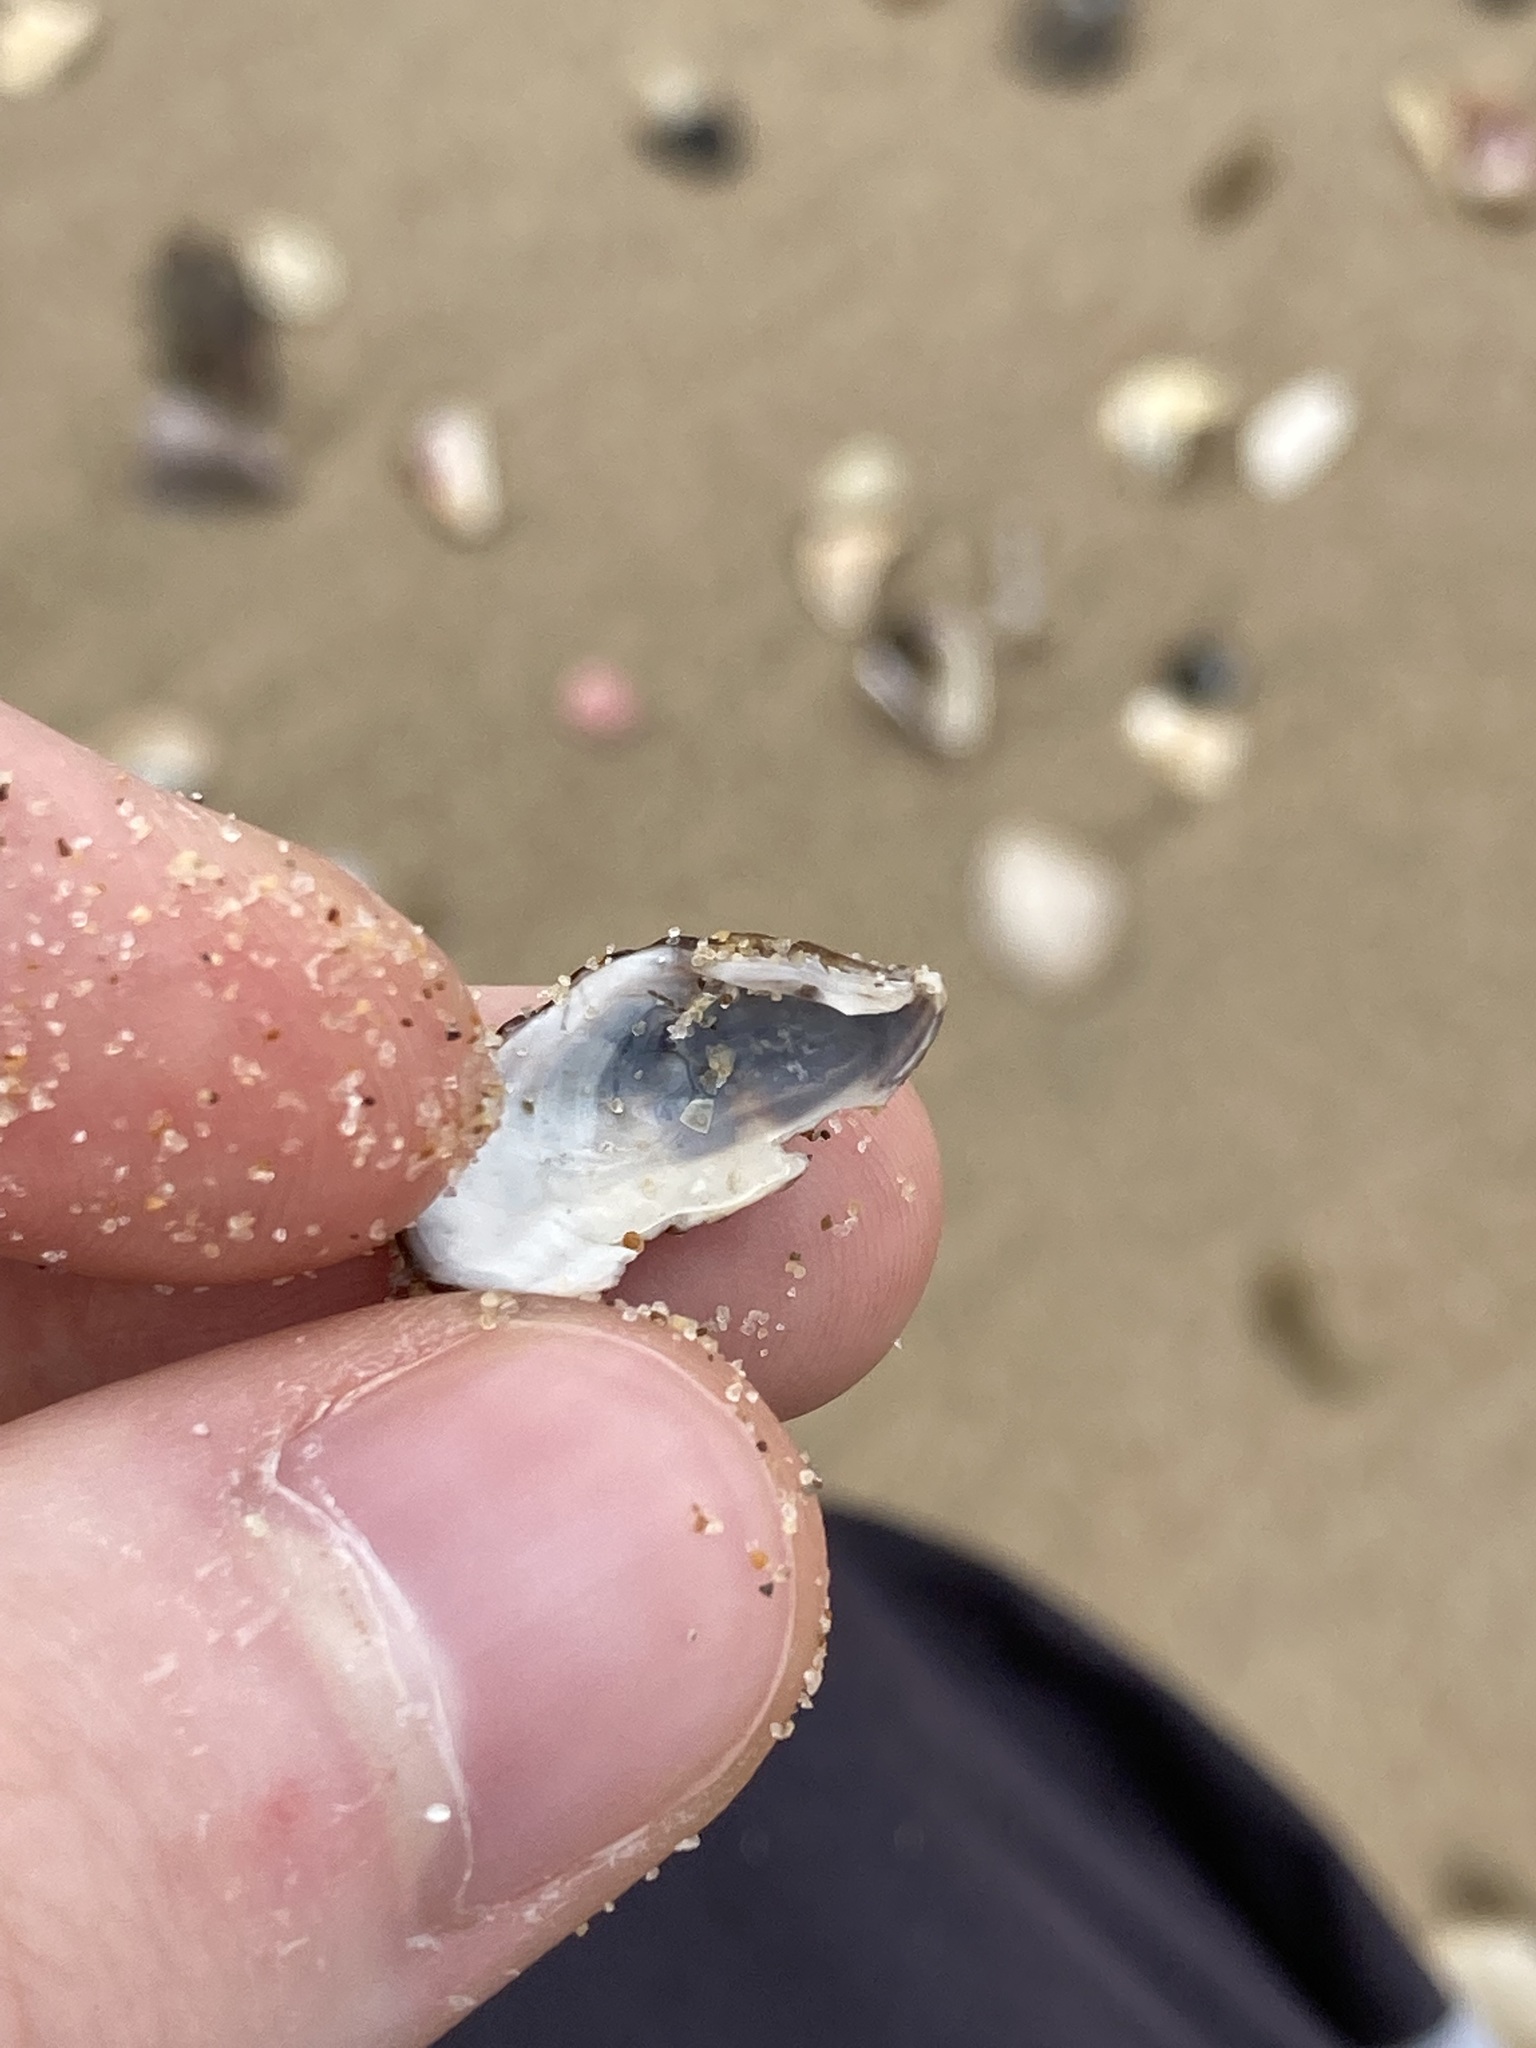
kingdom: Animalia
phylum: Mollusca
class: Bivalvia
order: Carditida
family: Carditidae
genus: Cardita
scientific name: Cardita aviculina
